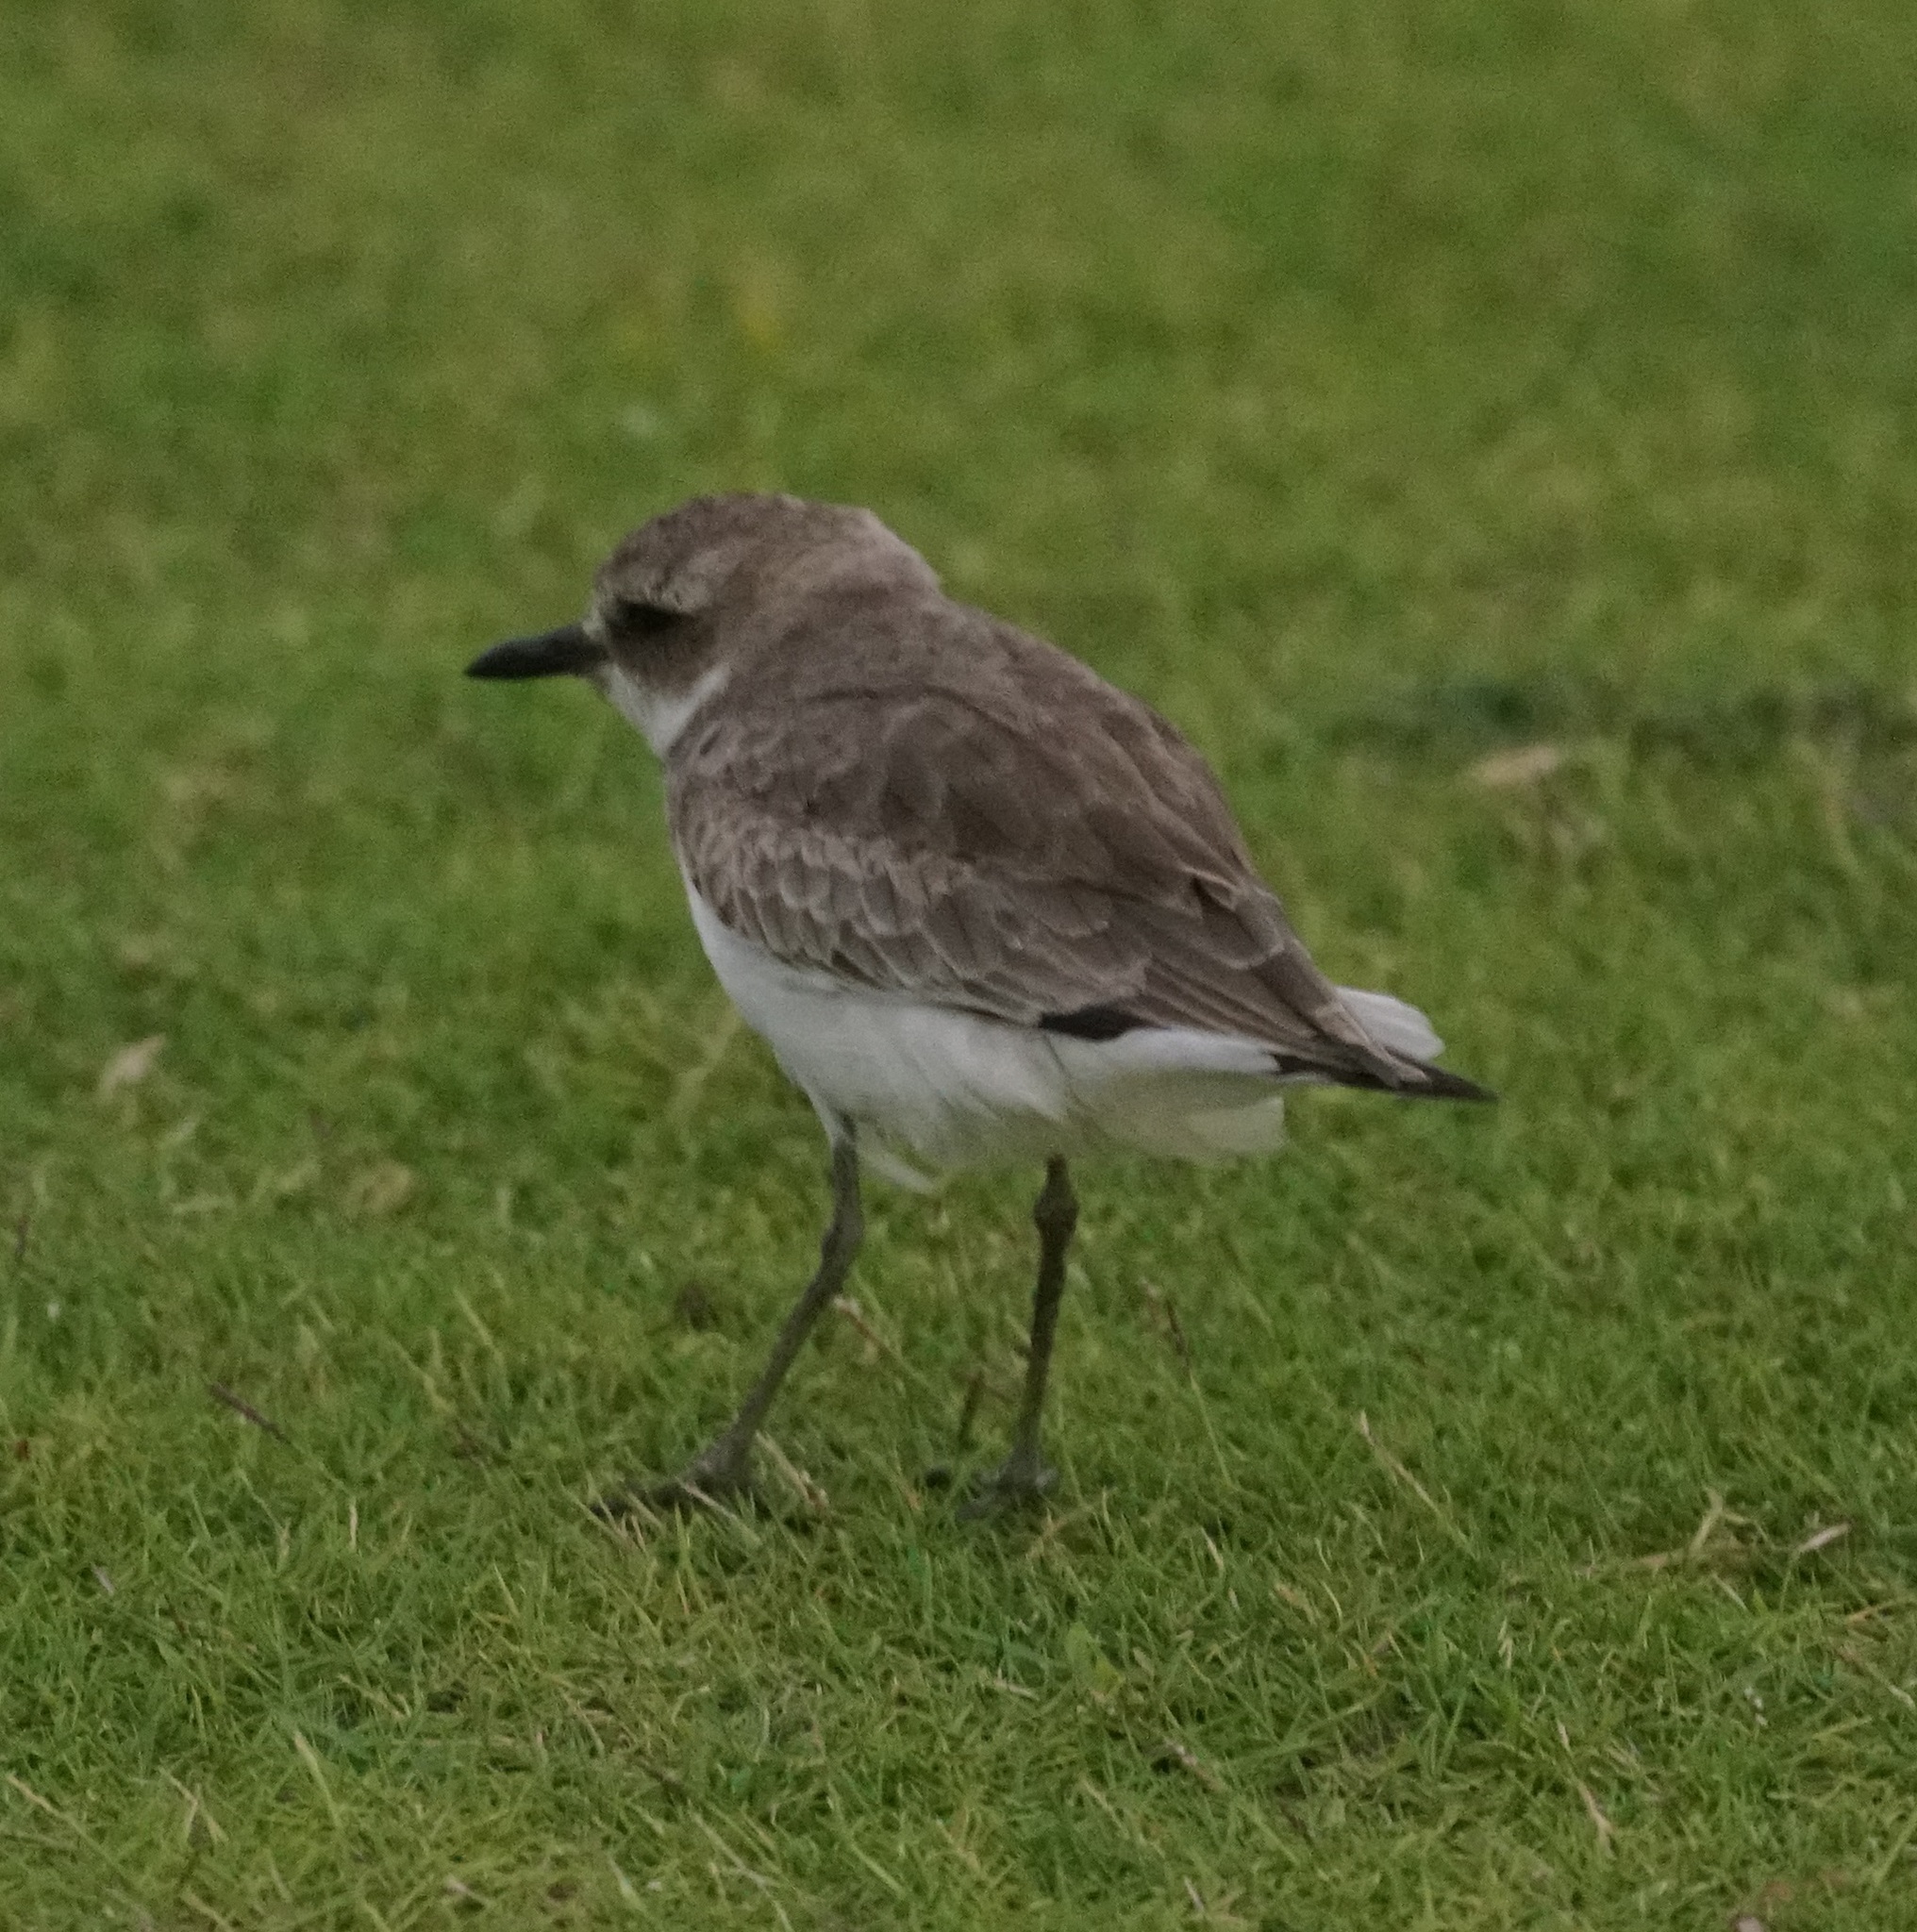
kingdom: Animalia
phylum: Chordata
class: Aves
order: Charadriiformes
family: Charadriidae
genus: Charadrius
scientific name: Charadrius leschenaultii
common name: Greater sand plover
